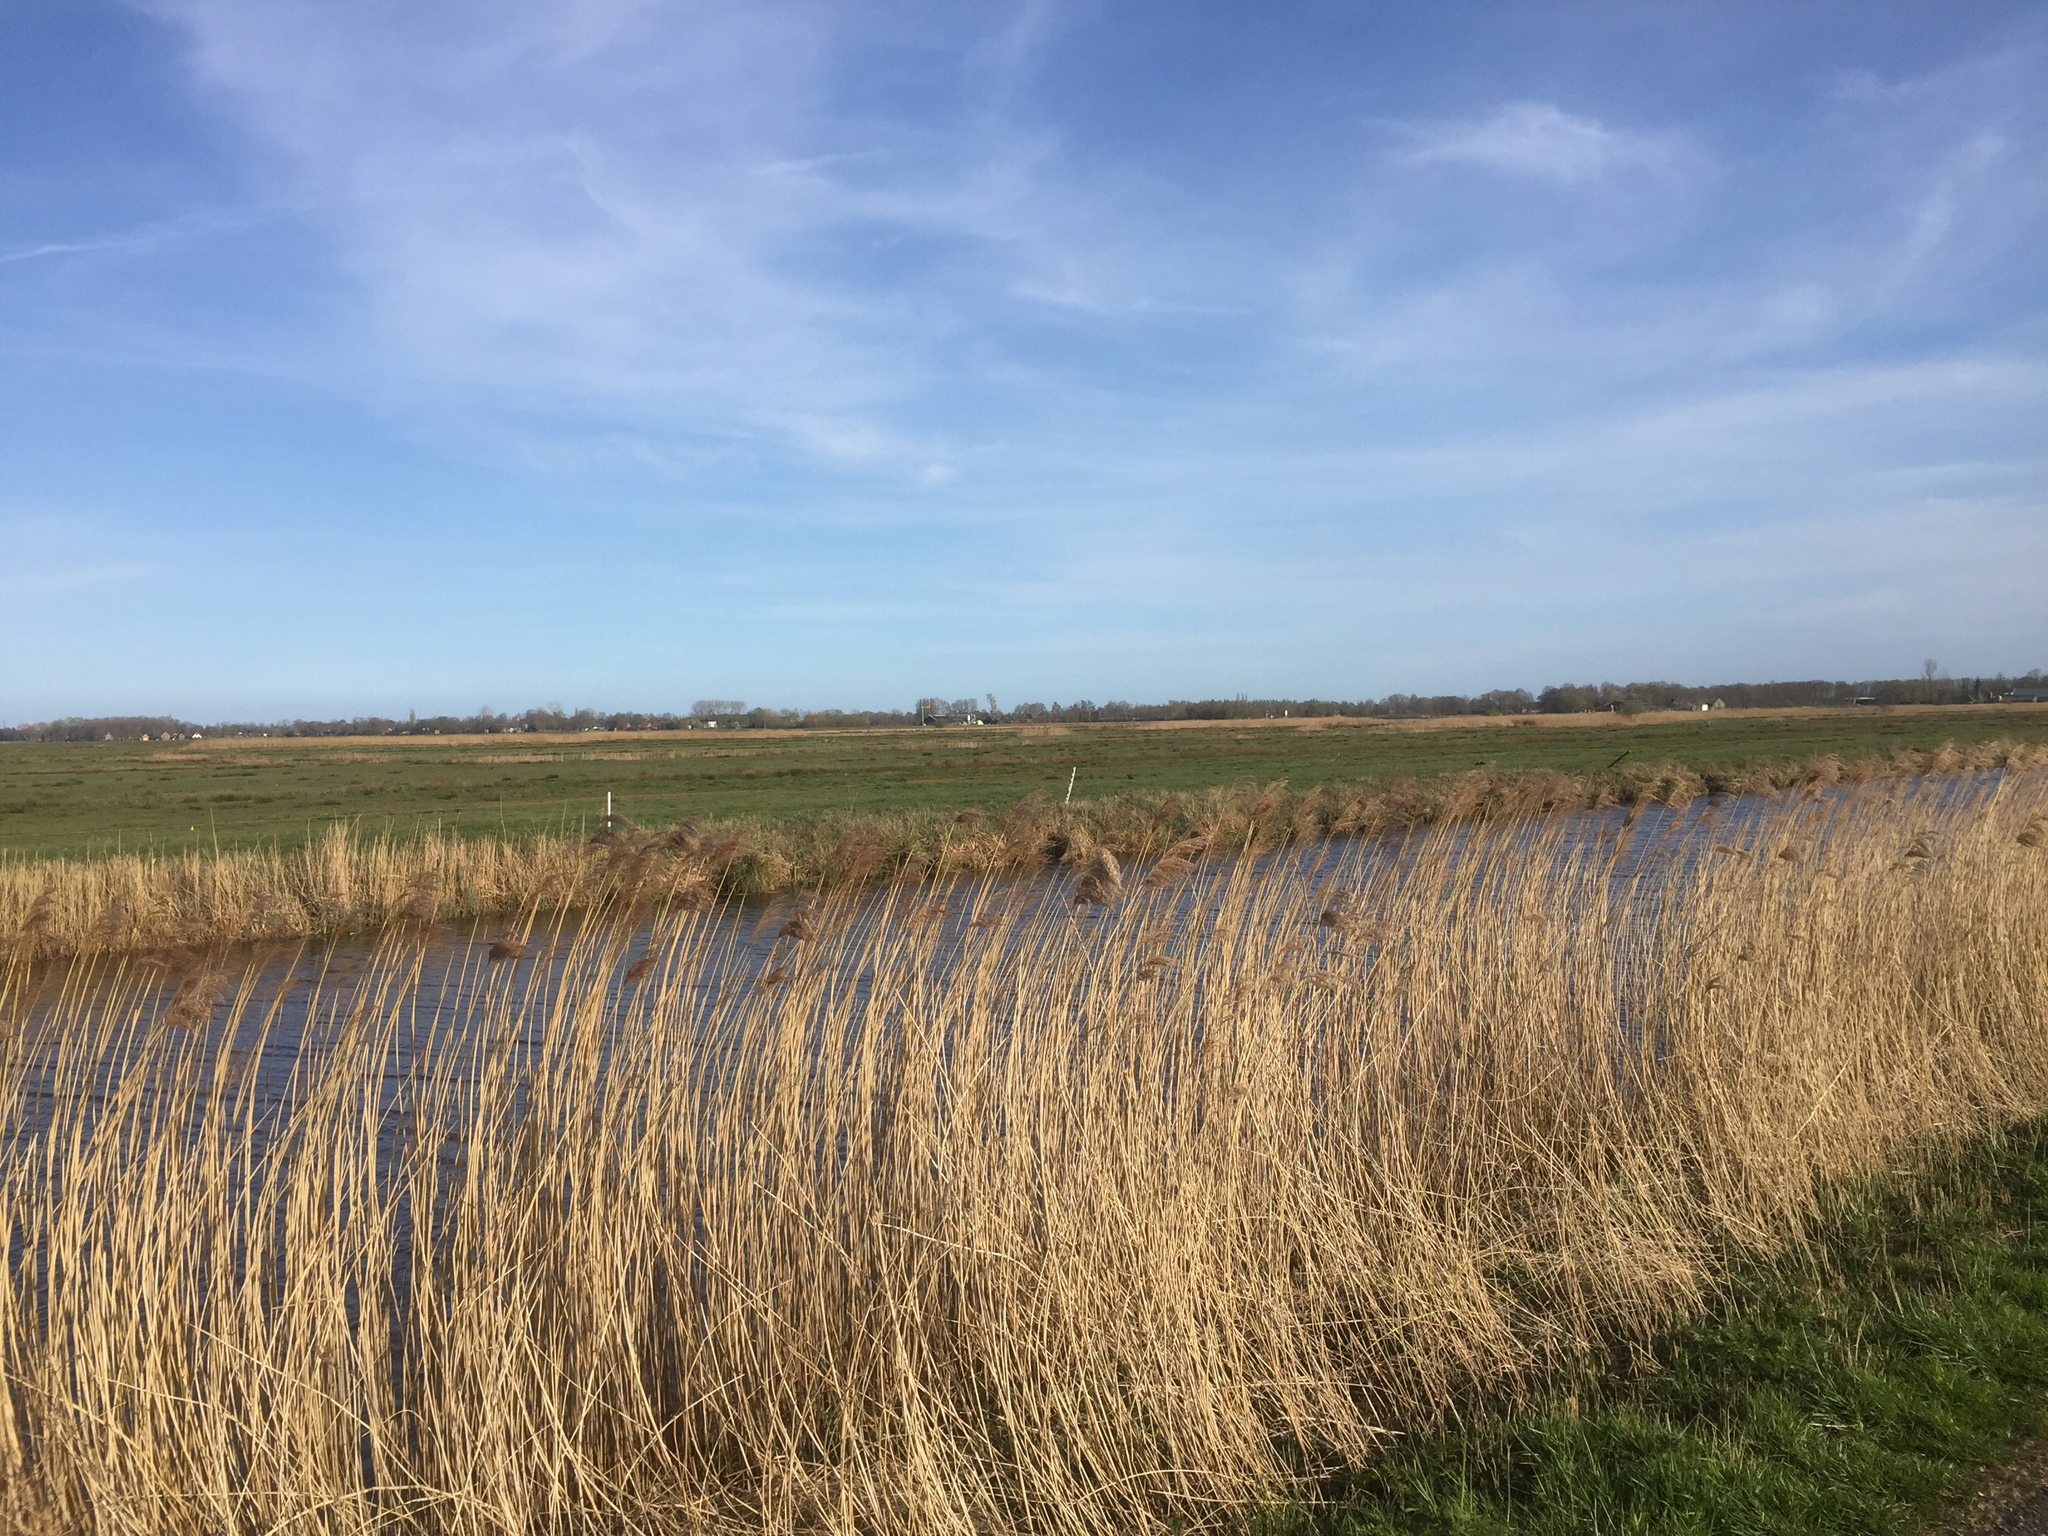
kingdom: Plantae
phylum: Tracheophyta
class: Liliopsida
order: Poales
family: Poaceae
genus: Phragmites
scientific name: Phragmites australis
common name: Common reed
